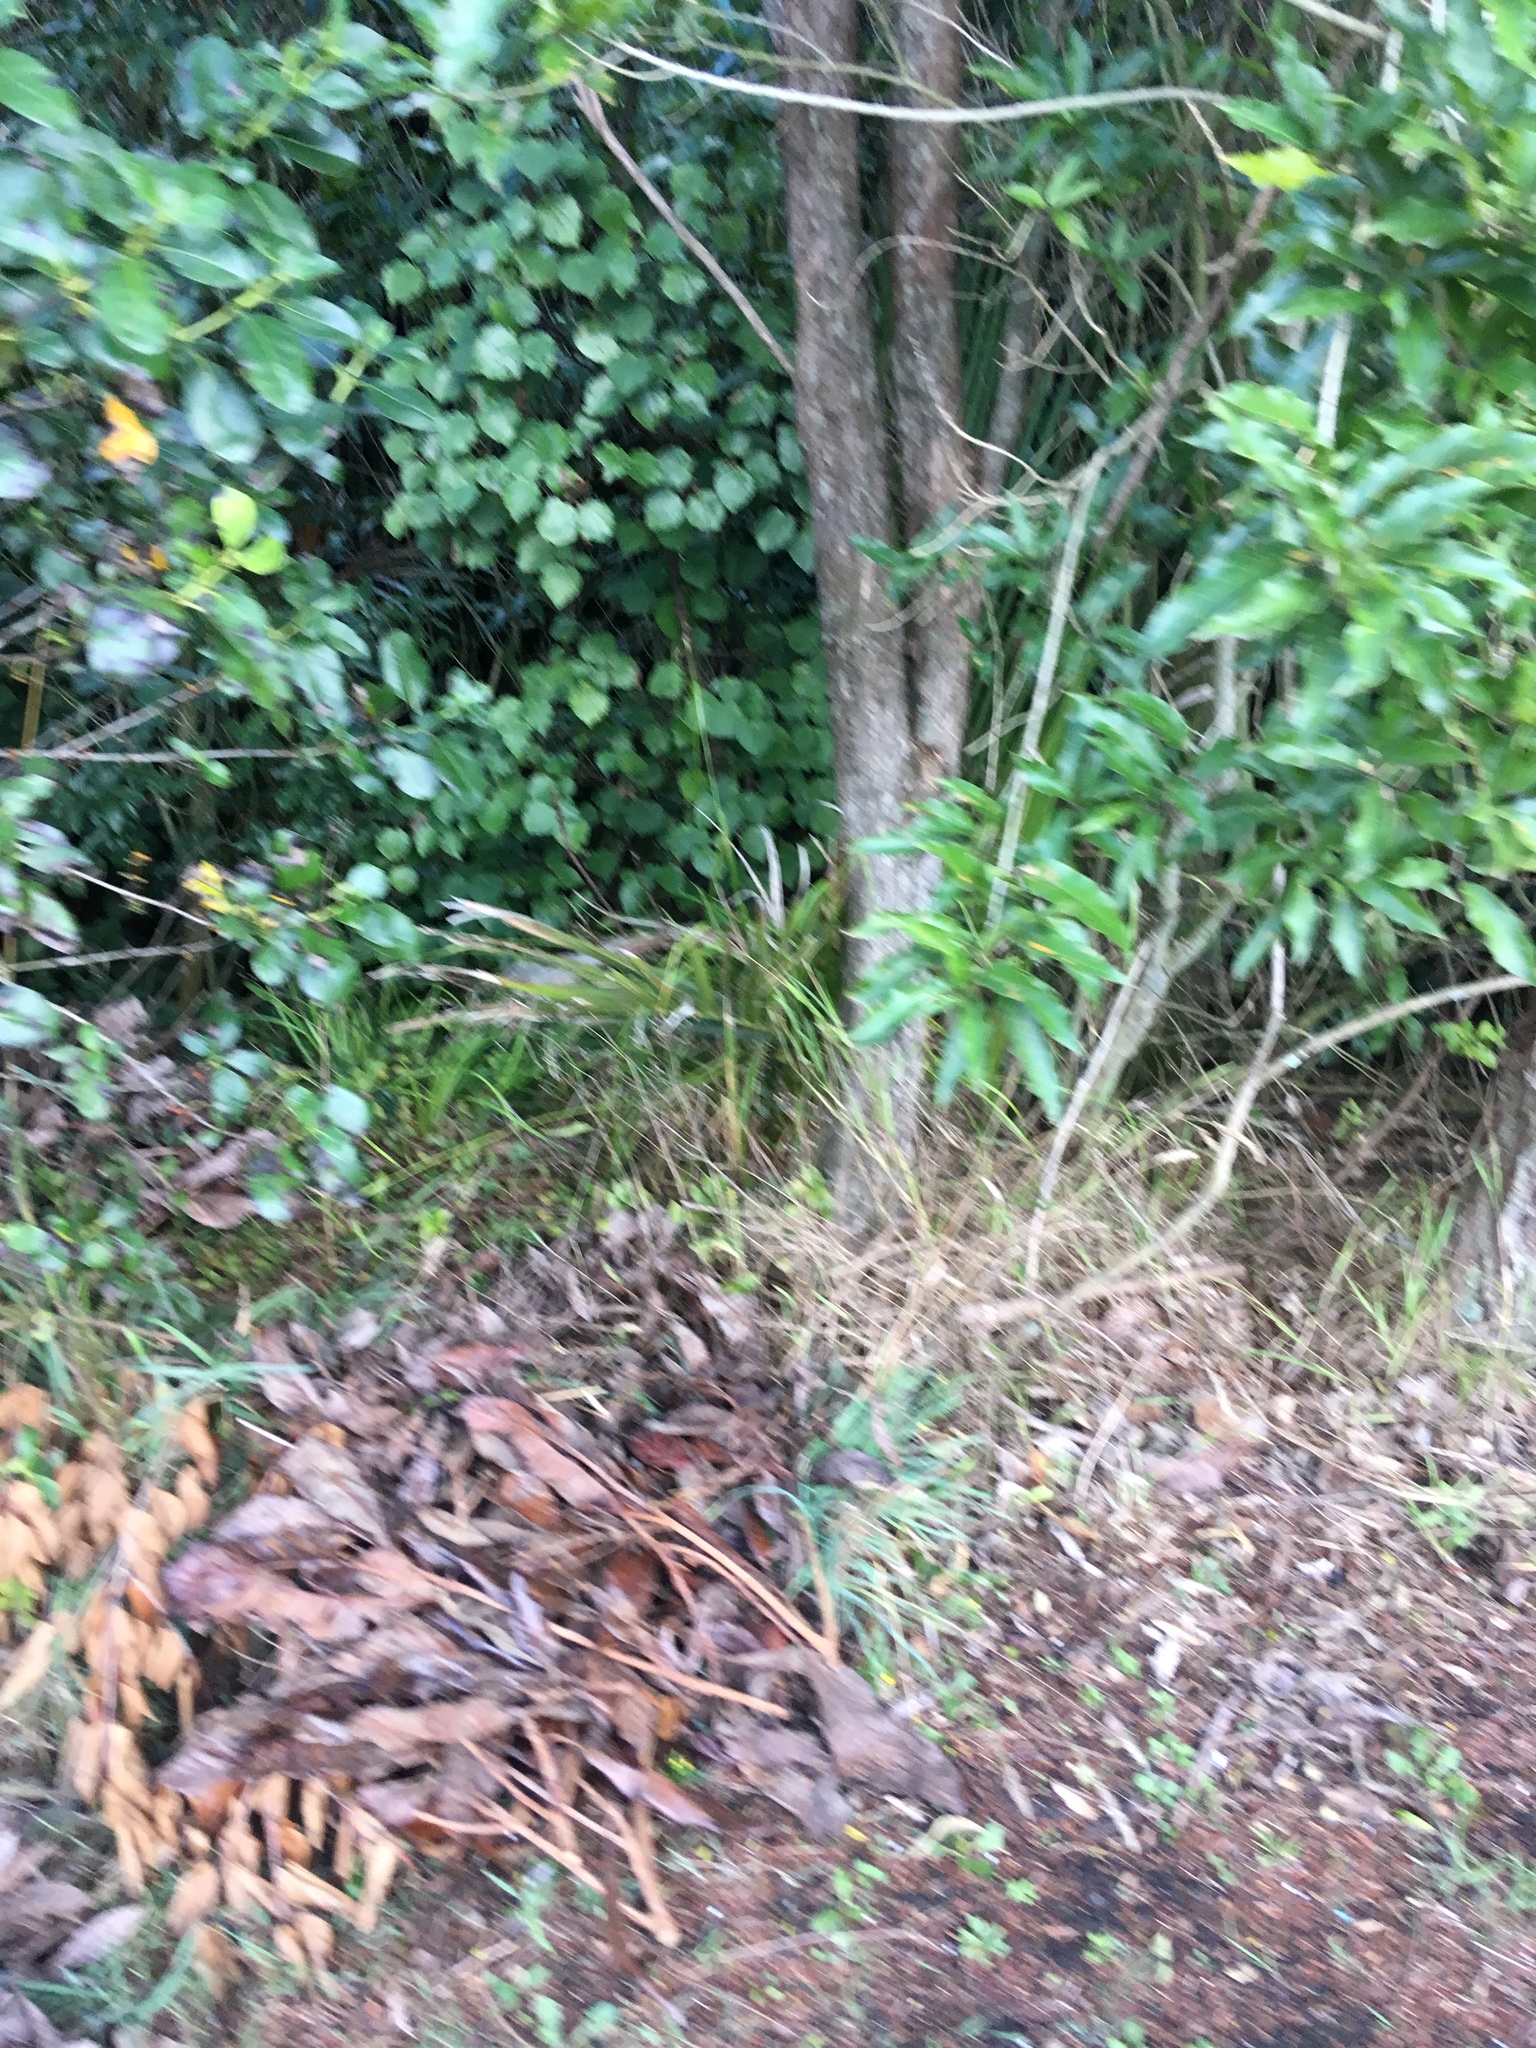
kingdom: Plantae
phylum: Tracheophyta
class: Magnoliopsida
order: Piperales
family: Piperaceae
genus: Macropiper
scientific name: Macropiper excelsum
